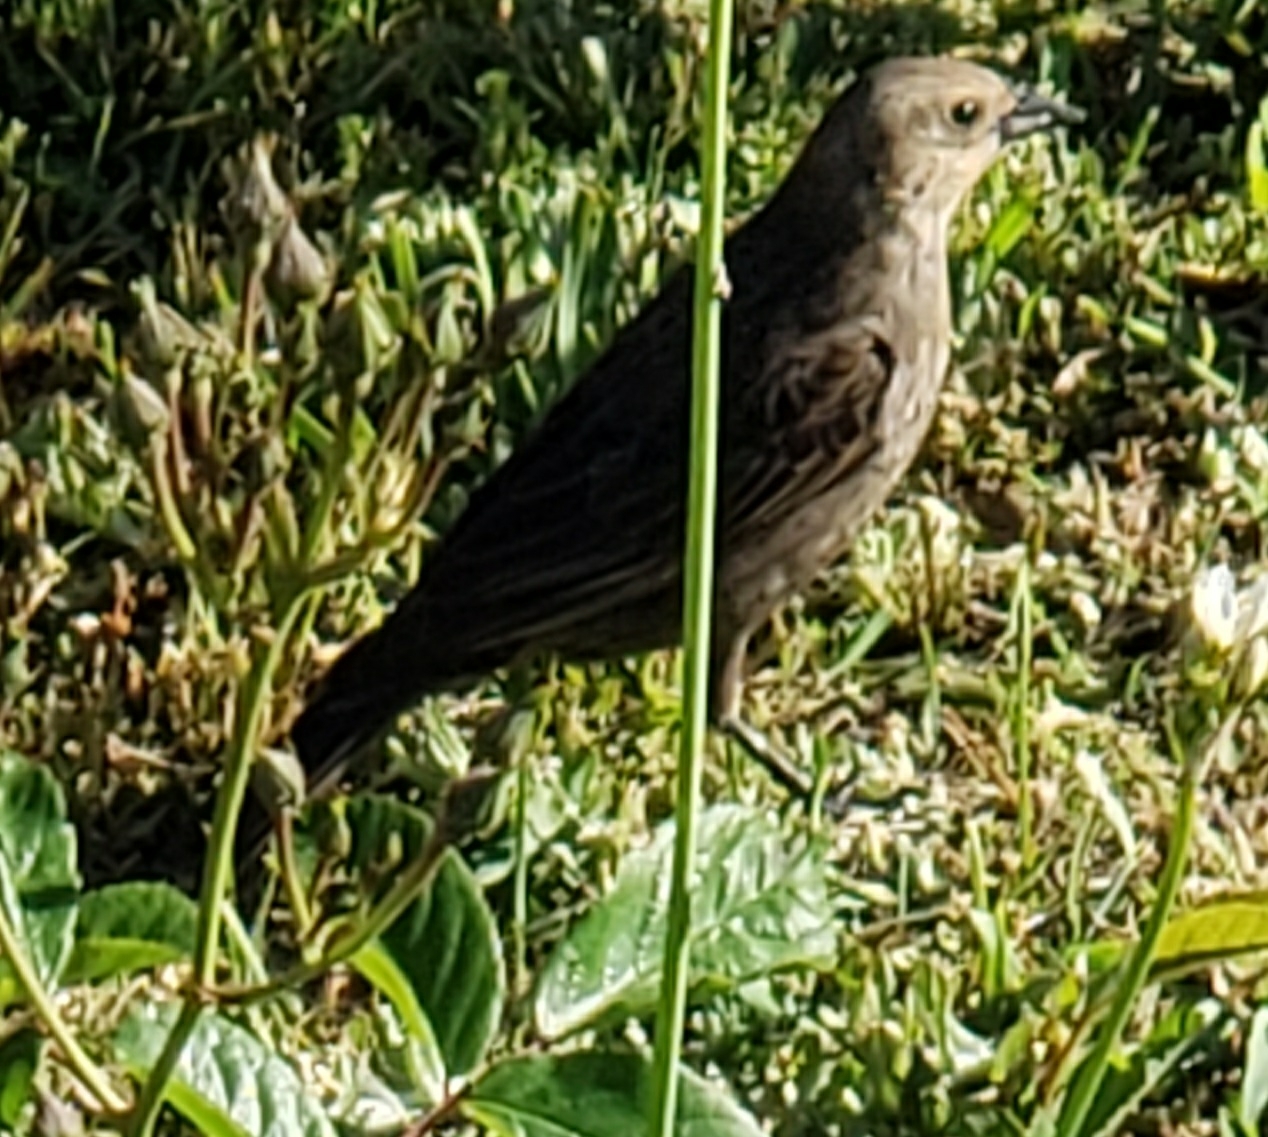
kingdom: Animalia
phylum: Chordata
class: Aves
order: Passeriformes
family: Icteridae
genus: Molothrus
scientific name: Molothrus ater
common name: Brown-headed cowbird
